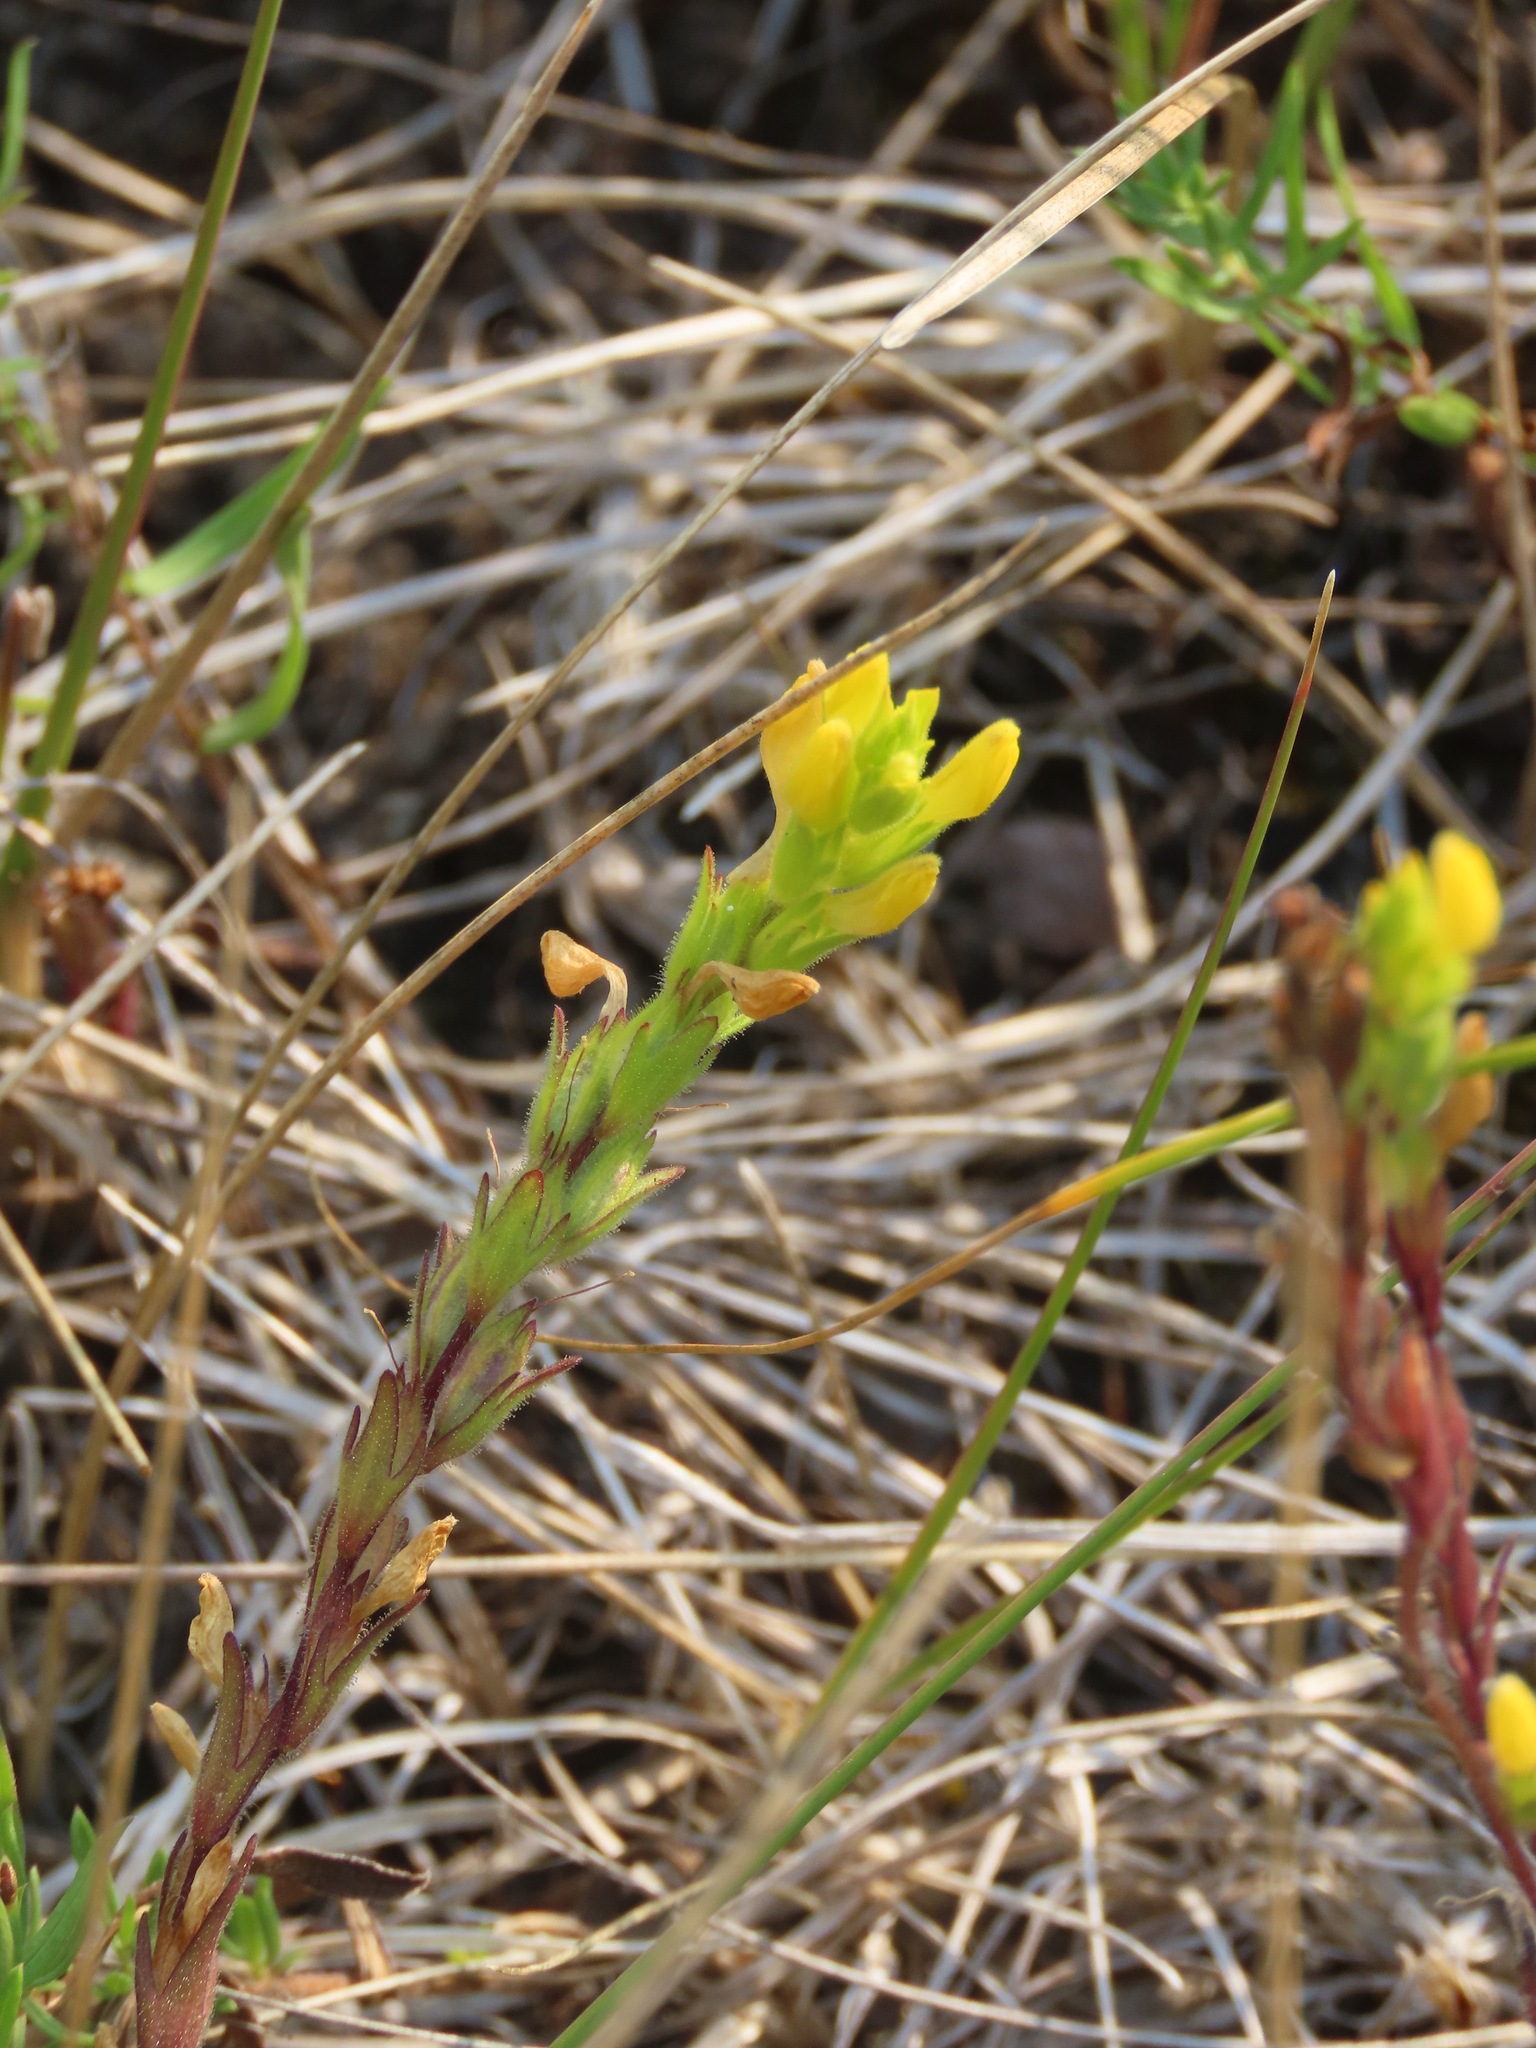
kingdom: Plantae
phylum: Tracheophyta
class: Magnoliopsida
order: Lamiales
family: Orobanchaceae
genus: Orthocarpus
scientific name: Orthocarpus luteus
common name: Golden-tongue owl's-clover
